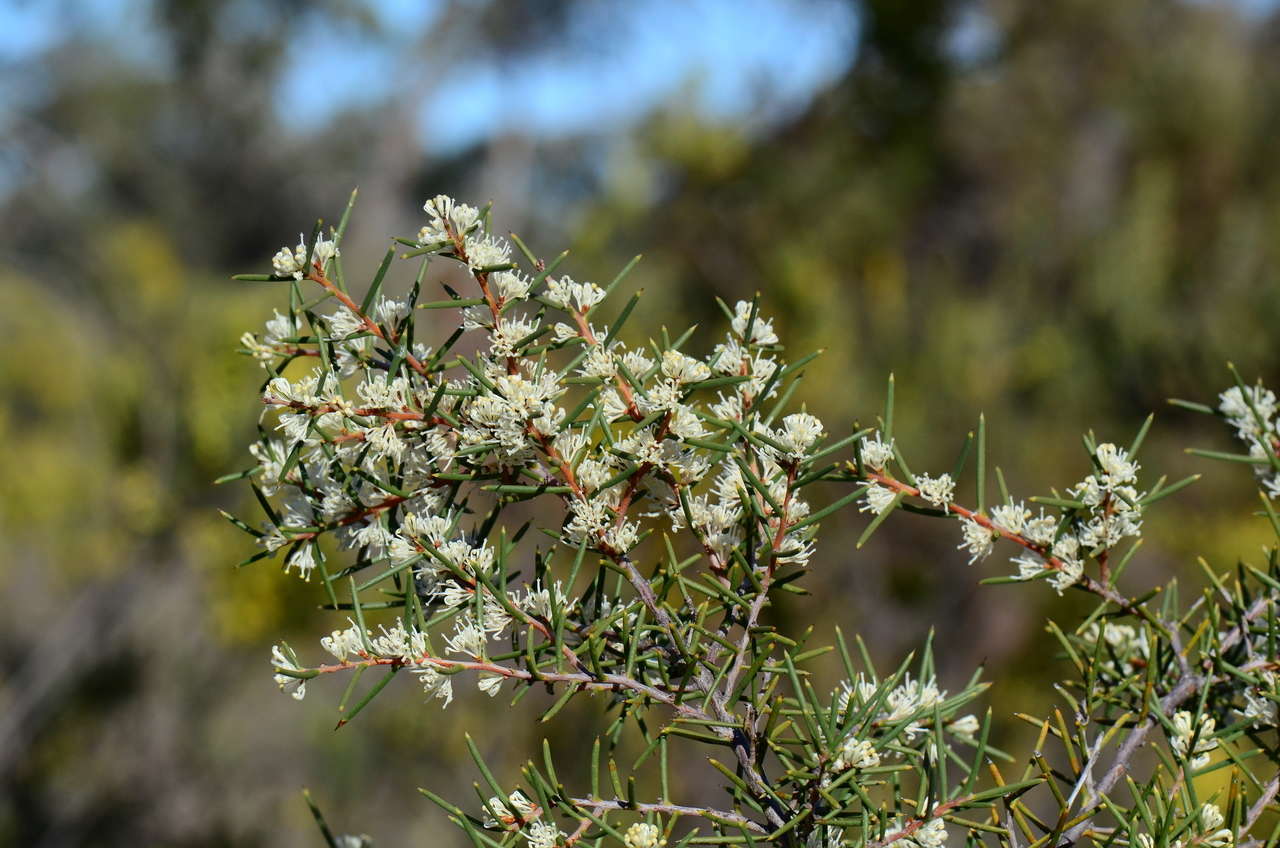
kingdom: Plantae
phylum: Tracheophyta
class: Magnoliopsida
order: Proteales
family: Proteaceae
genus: Hakea
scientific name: Hakea rugosa
